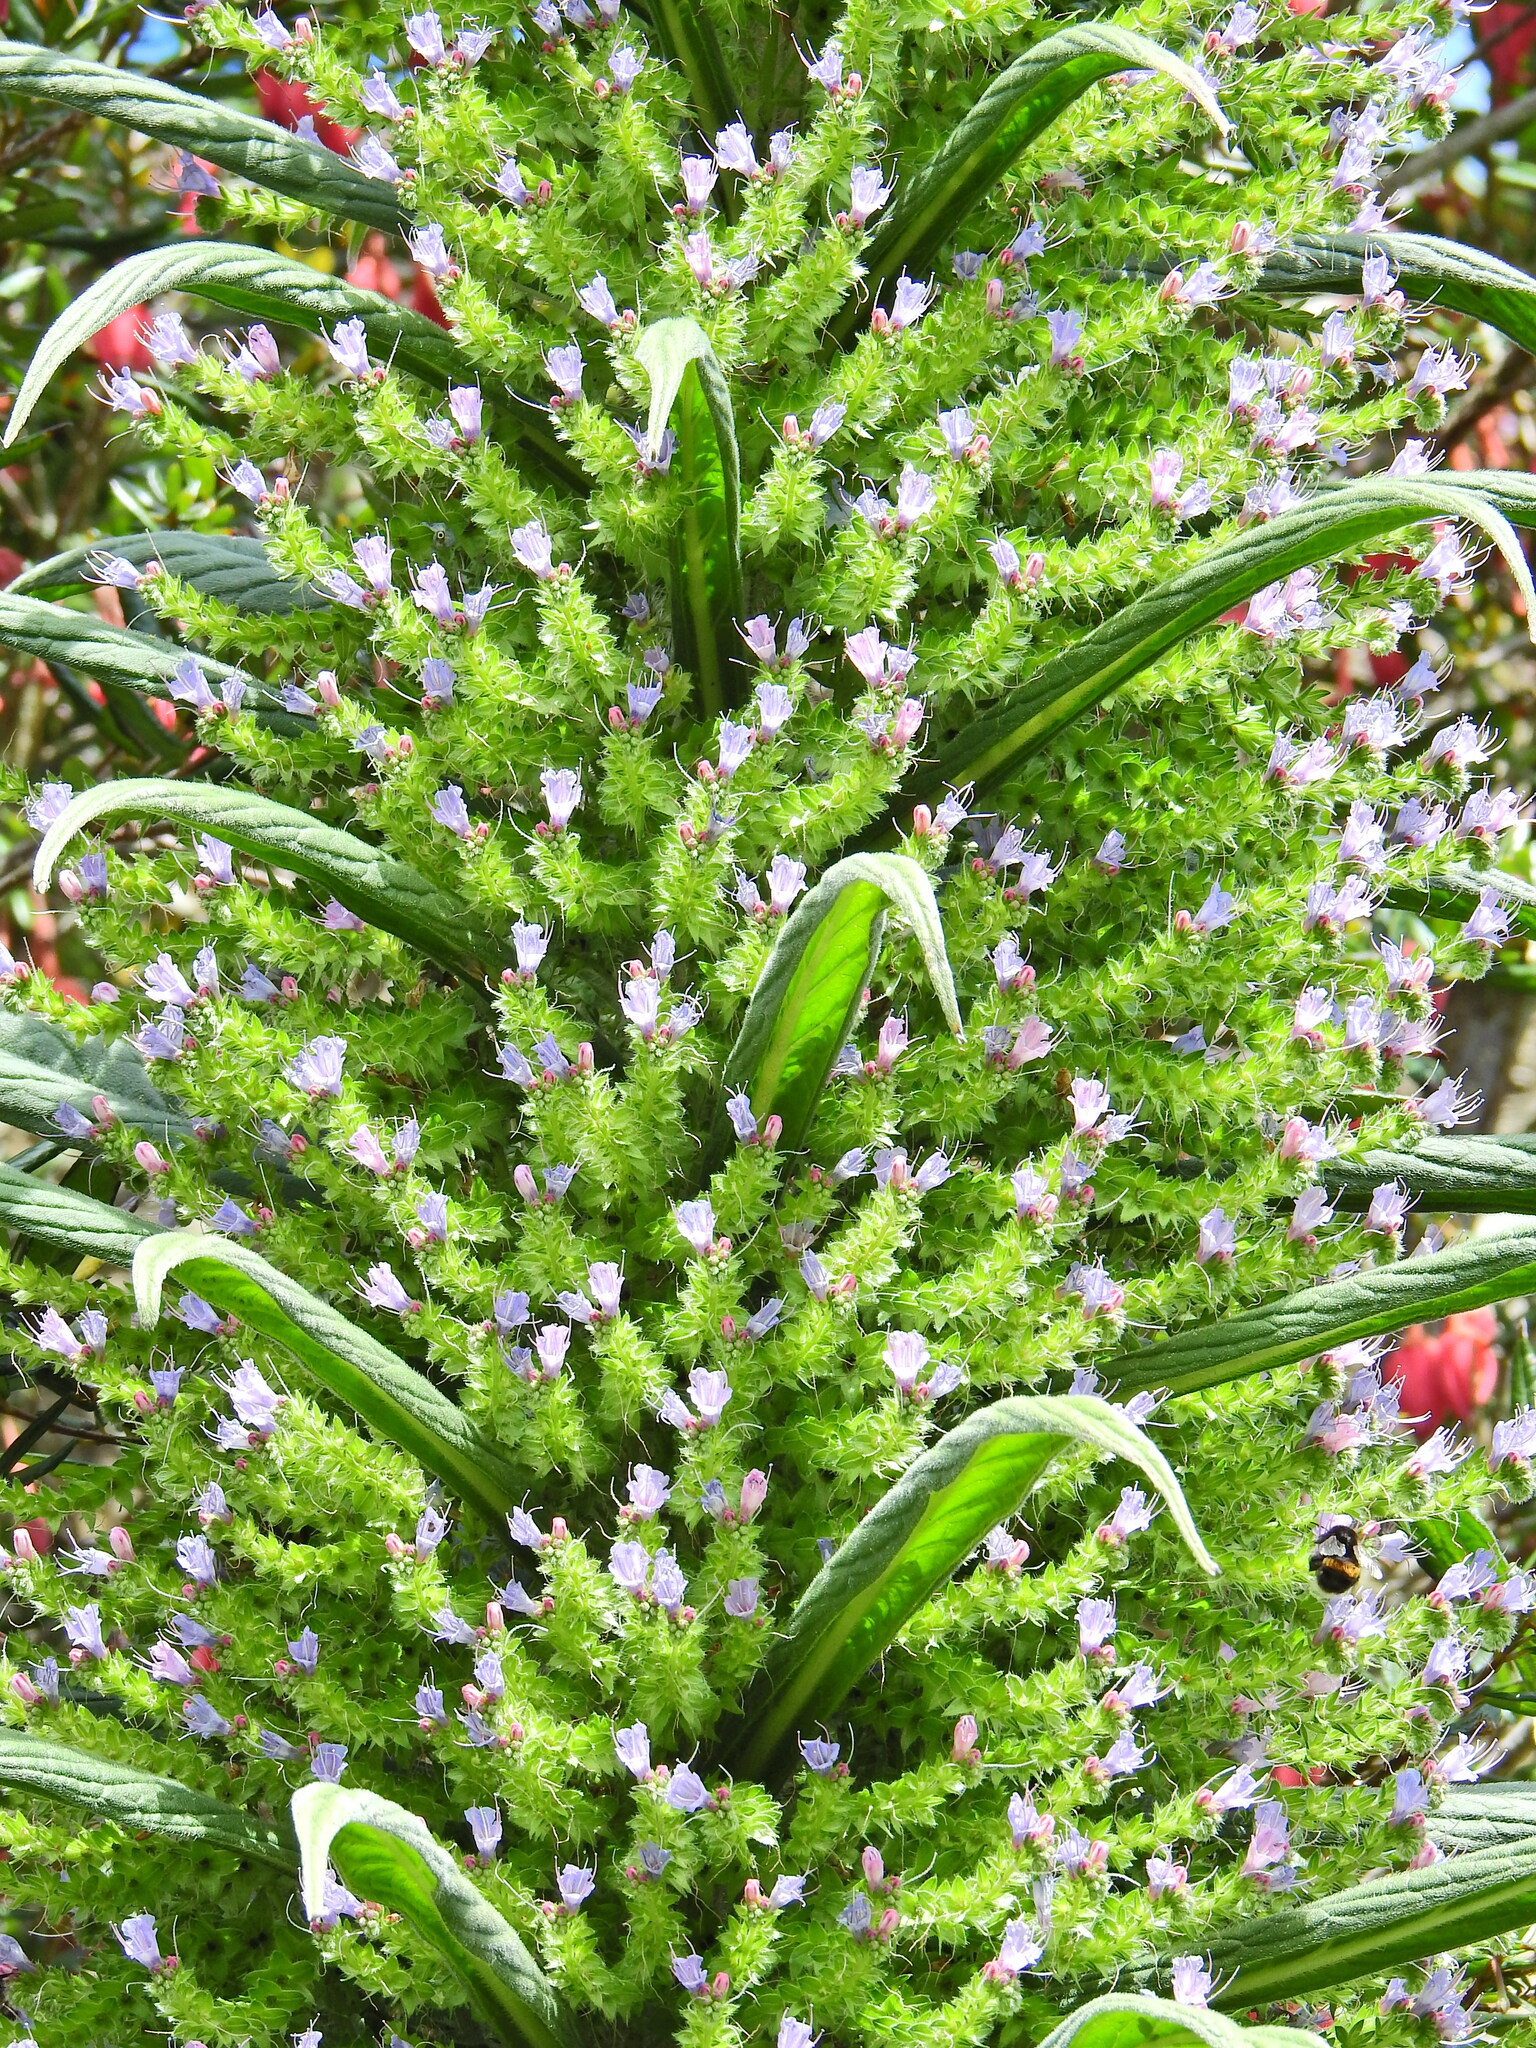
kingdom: Plantae
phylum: Tracheophyta
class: Magnoliopsida
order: Boraginales
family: Boraginaceae
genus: Echium
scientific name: Echium pininana
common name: Giant viper's-bugloss
